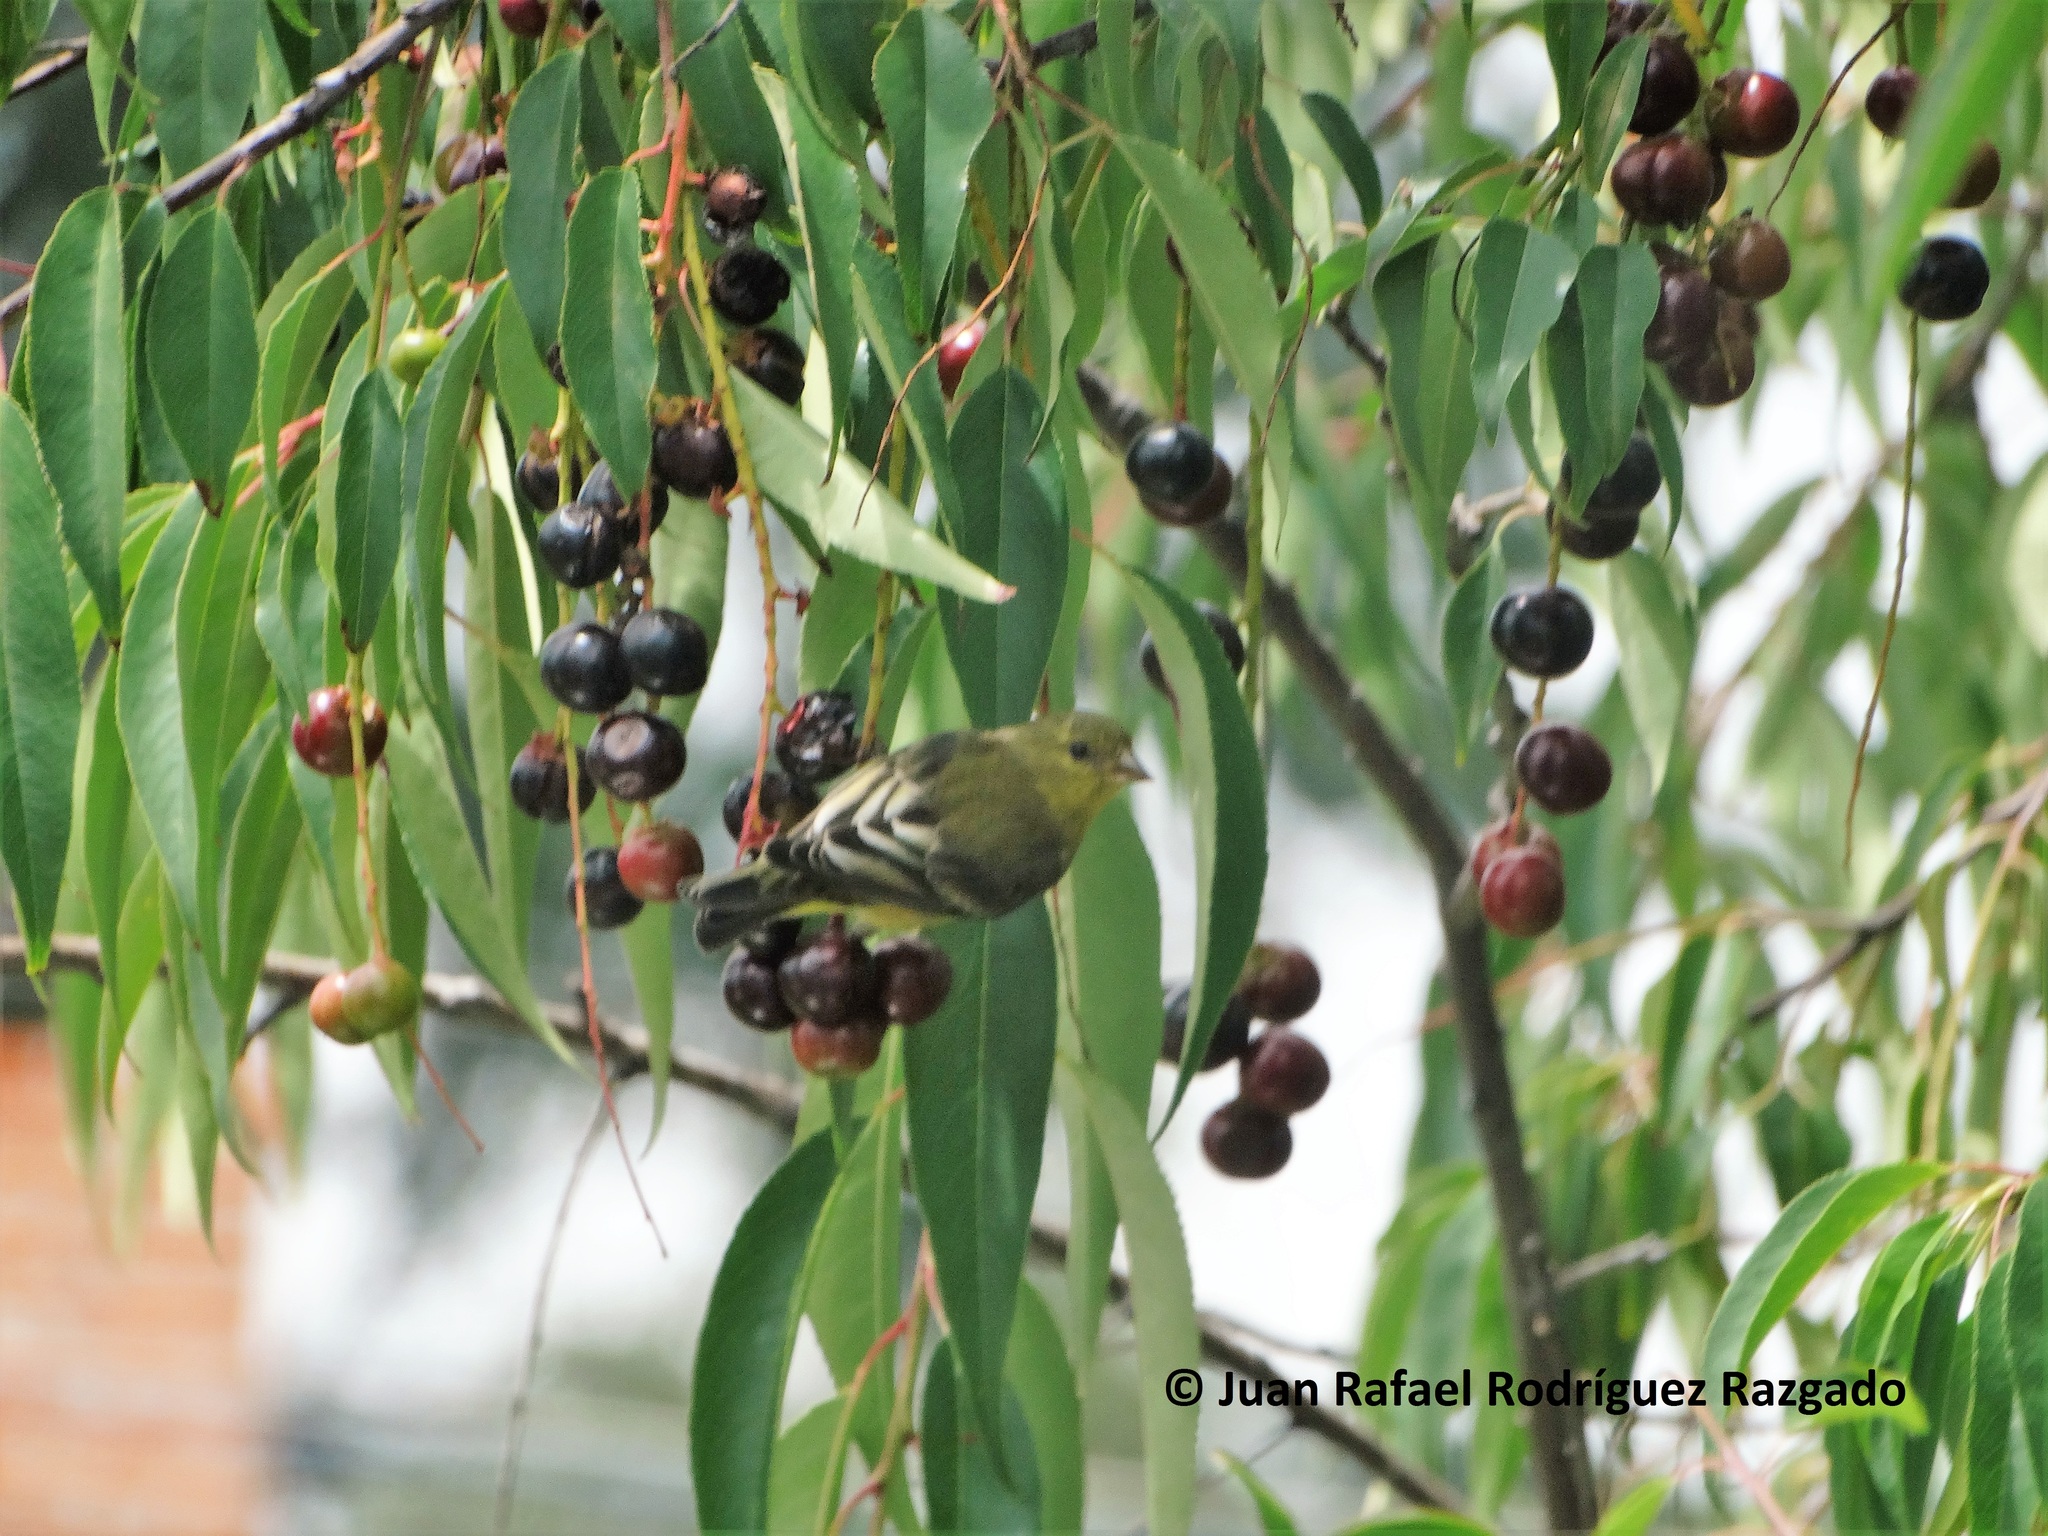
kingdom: Animalia
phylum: Chordata
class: Aves
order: Passeriformes
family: Fringillidae
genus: Spinus
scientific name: Spinus psaltria
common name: Lesser goldfinch
